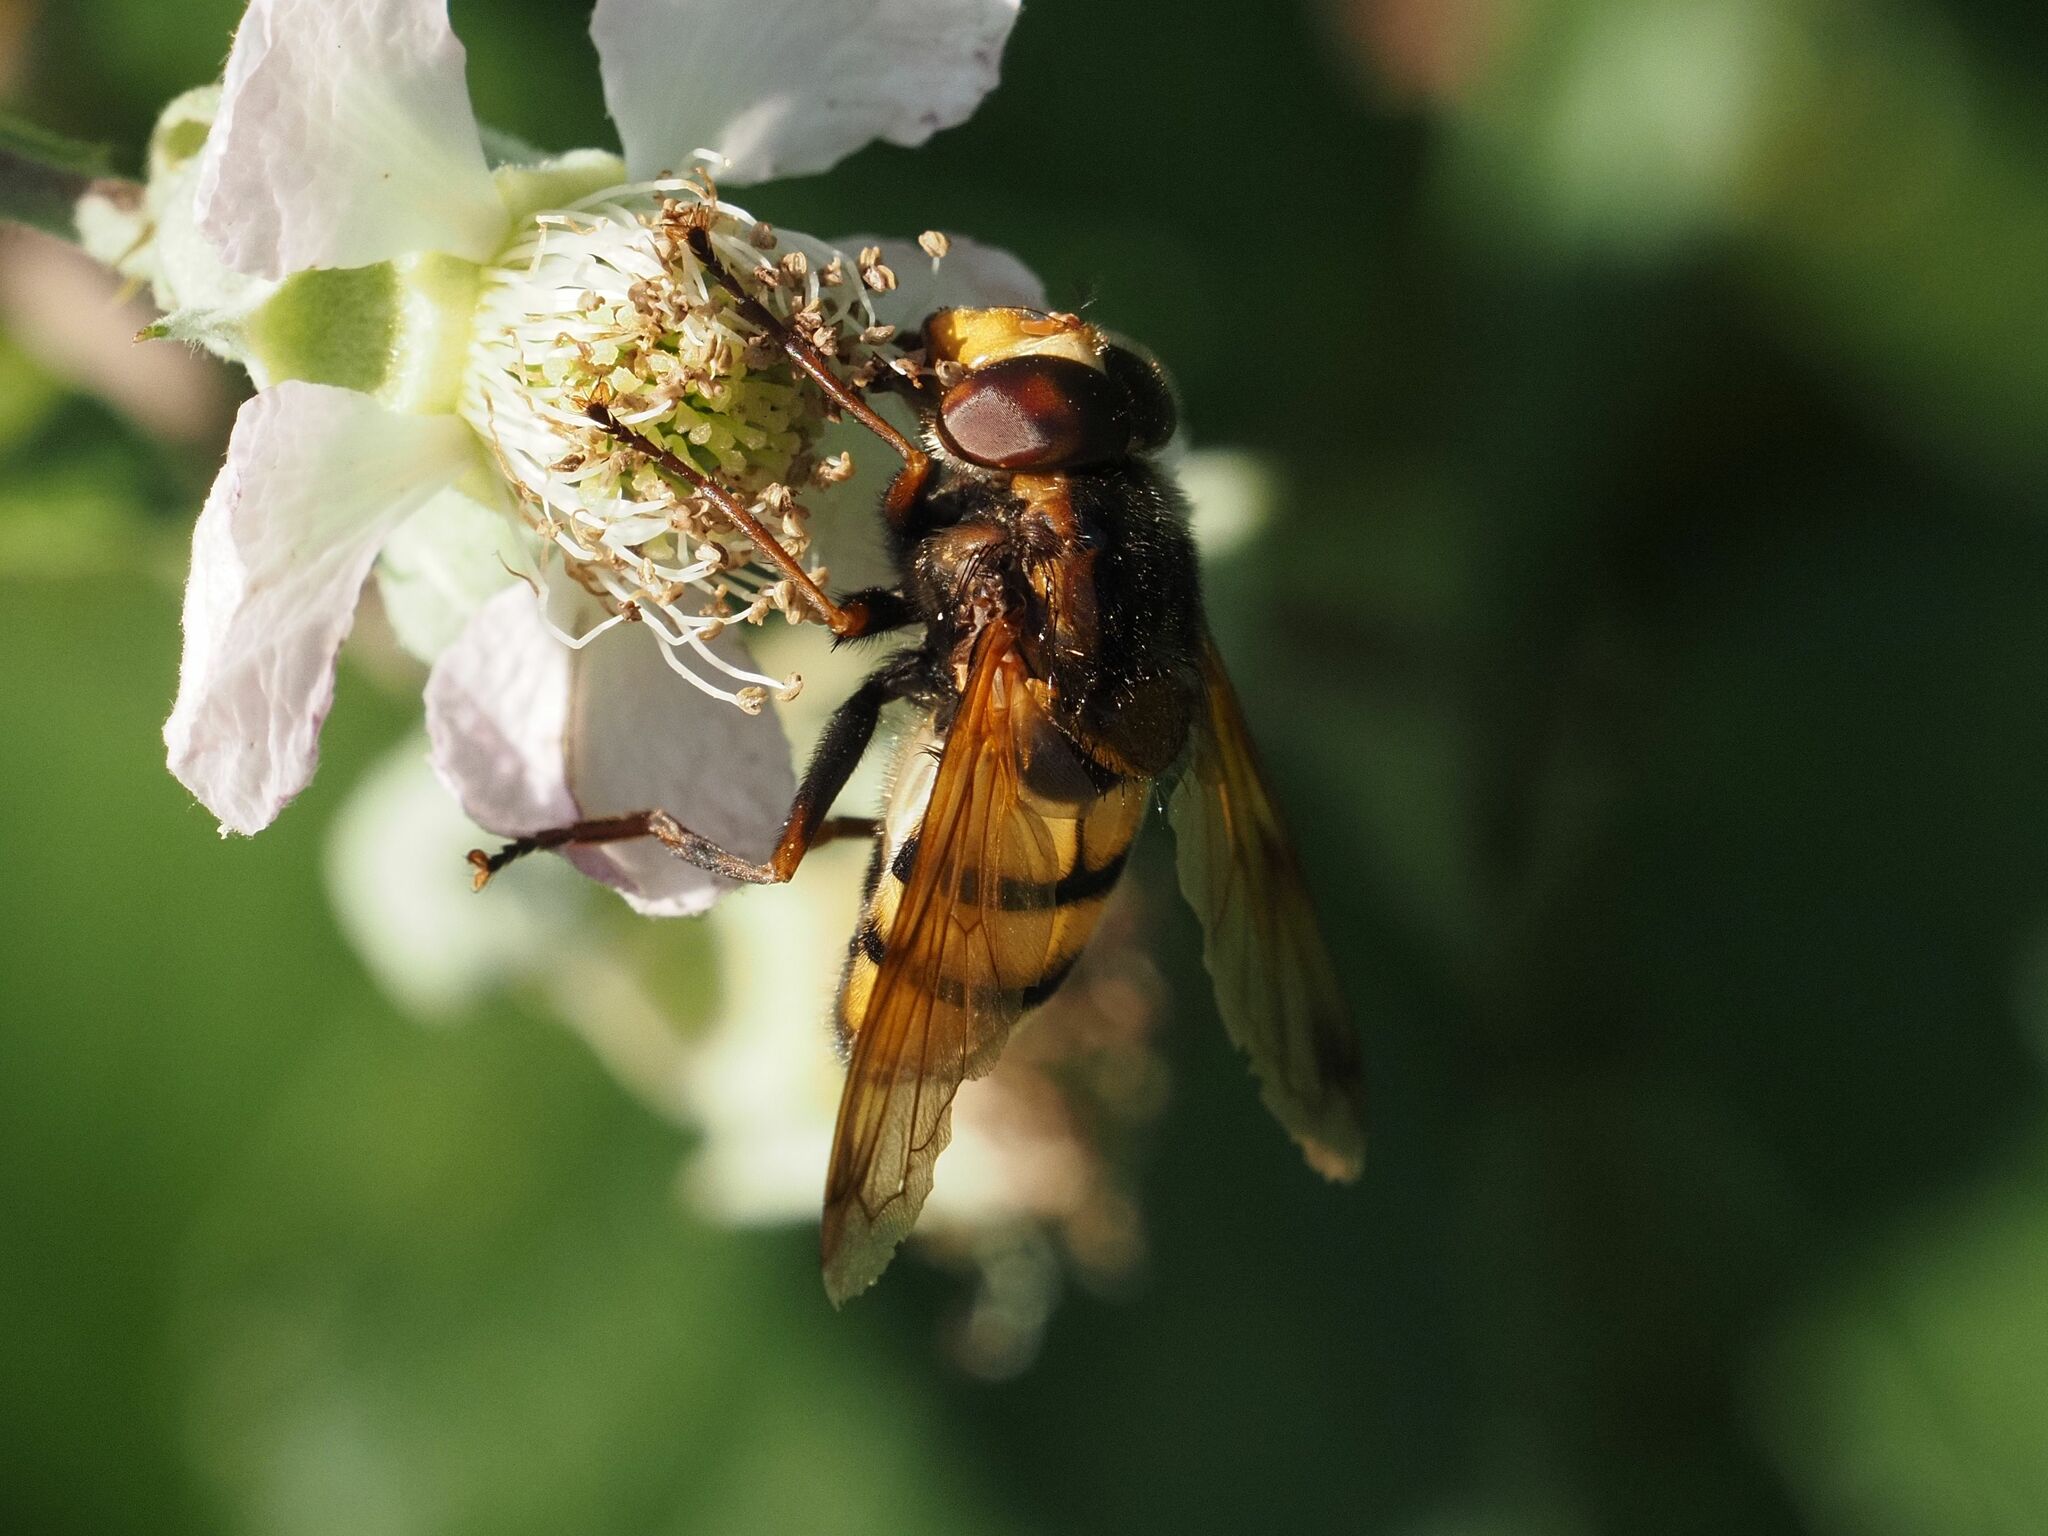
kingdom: Animalia
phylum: Arthropoda
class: Insecta
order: Diptera
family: Syrphidae
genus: Volucella
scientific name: Volucella inanis
